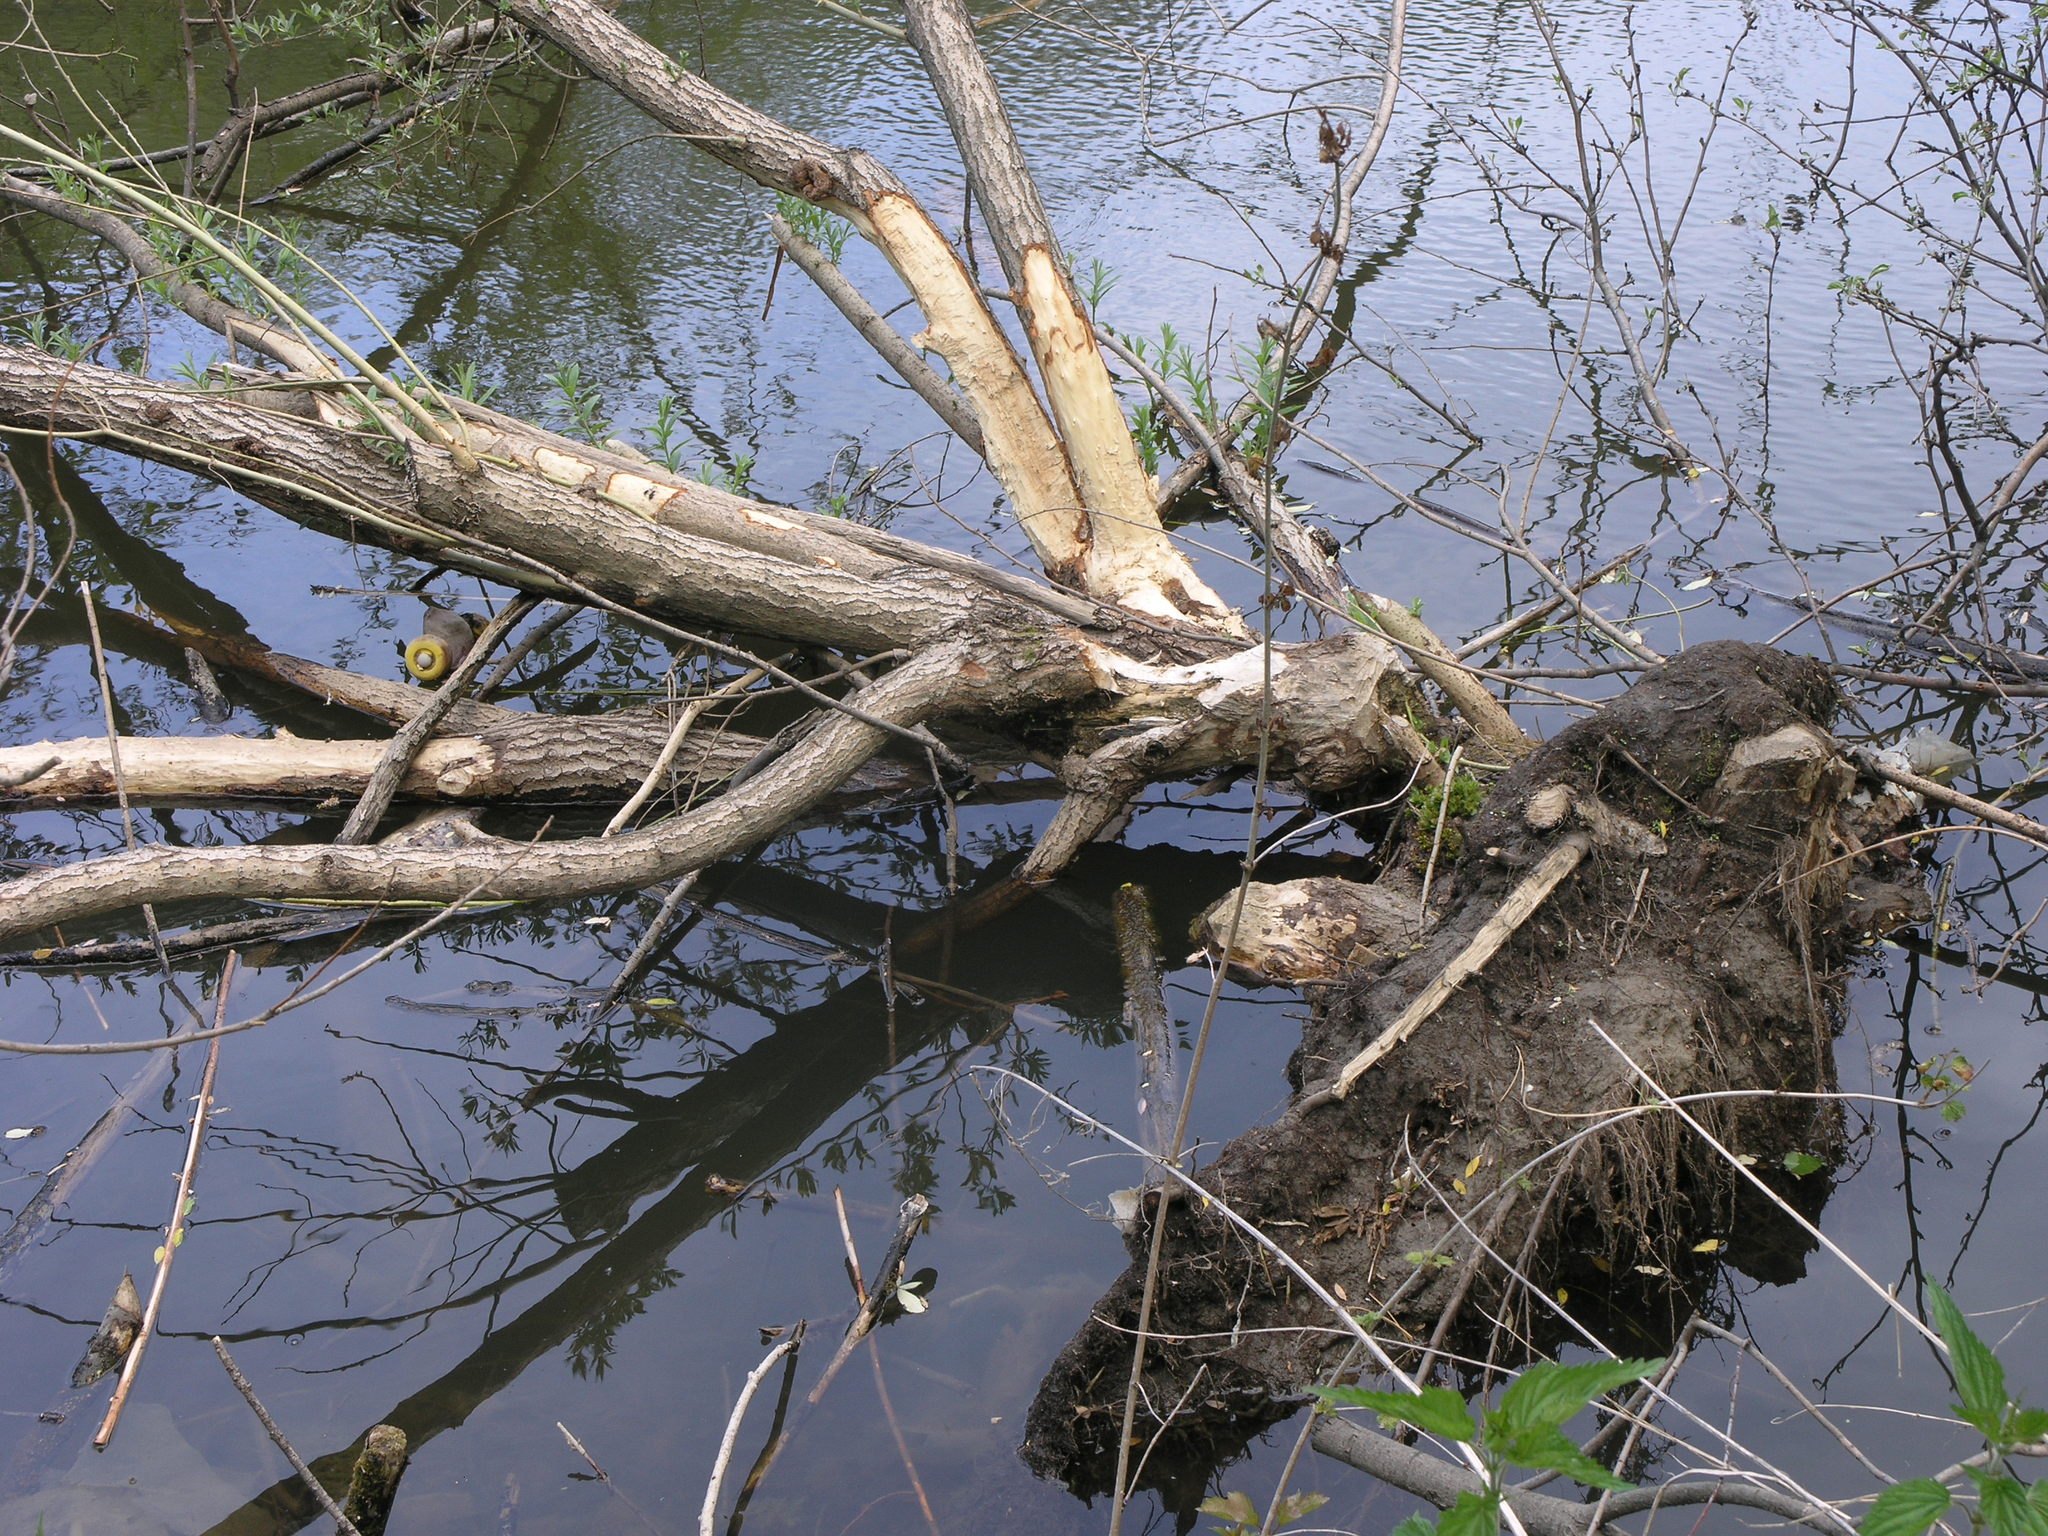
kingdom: Animalia
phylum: Chordata
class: Mammalia
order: Rodentia
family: Castoridae
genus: Castor
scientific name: Castor fiber
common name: Eurasian beaver
